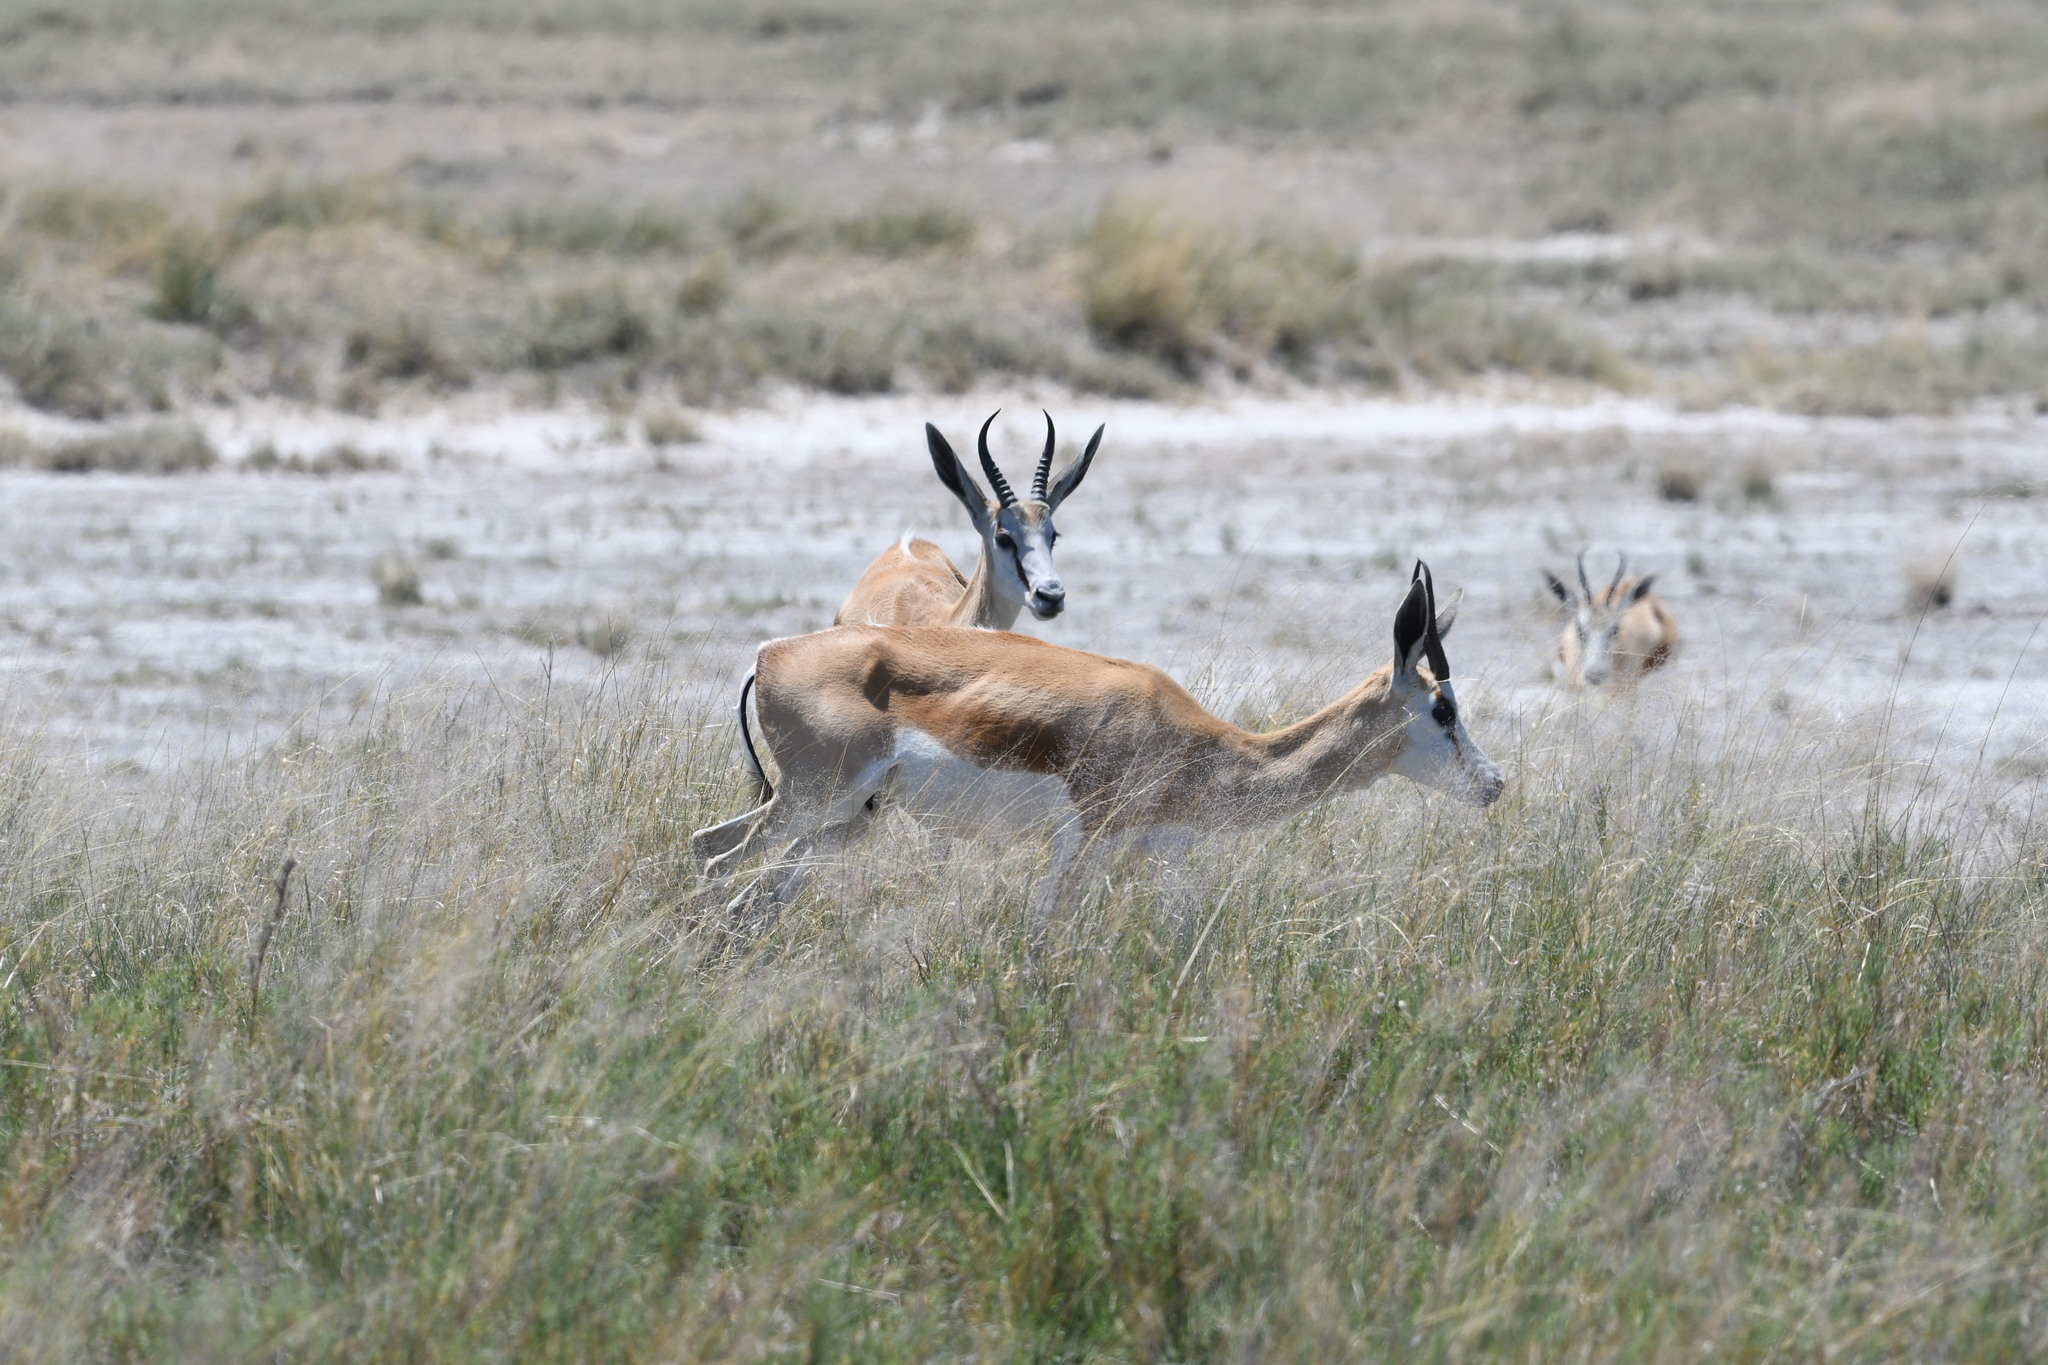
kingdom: Animalia
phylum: Chordata
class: Mammalia
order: Artiodactyla
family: Bovidae
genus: Antidorcas
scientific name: Antidorcas marsupialis
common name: Springbok
